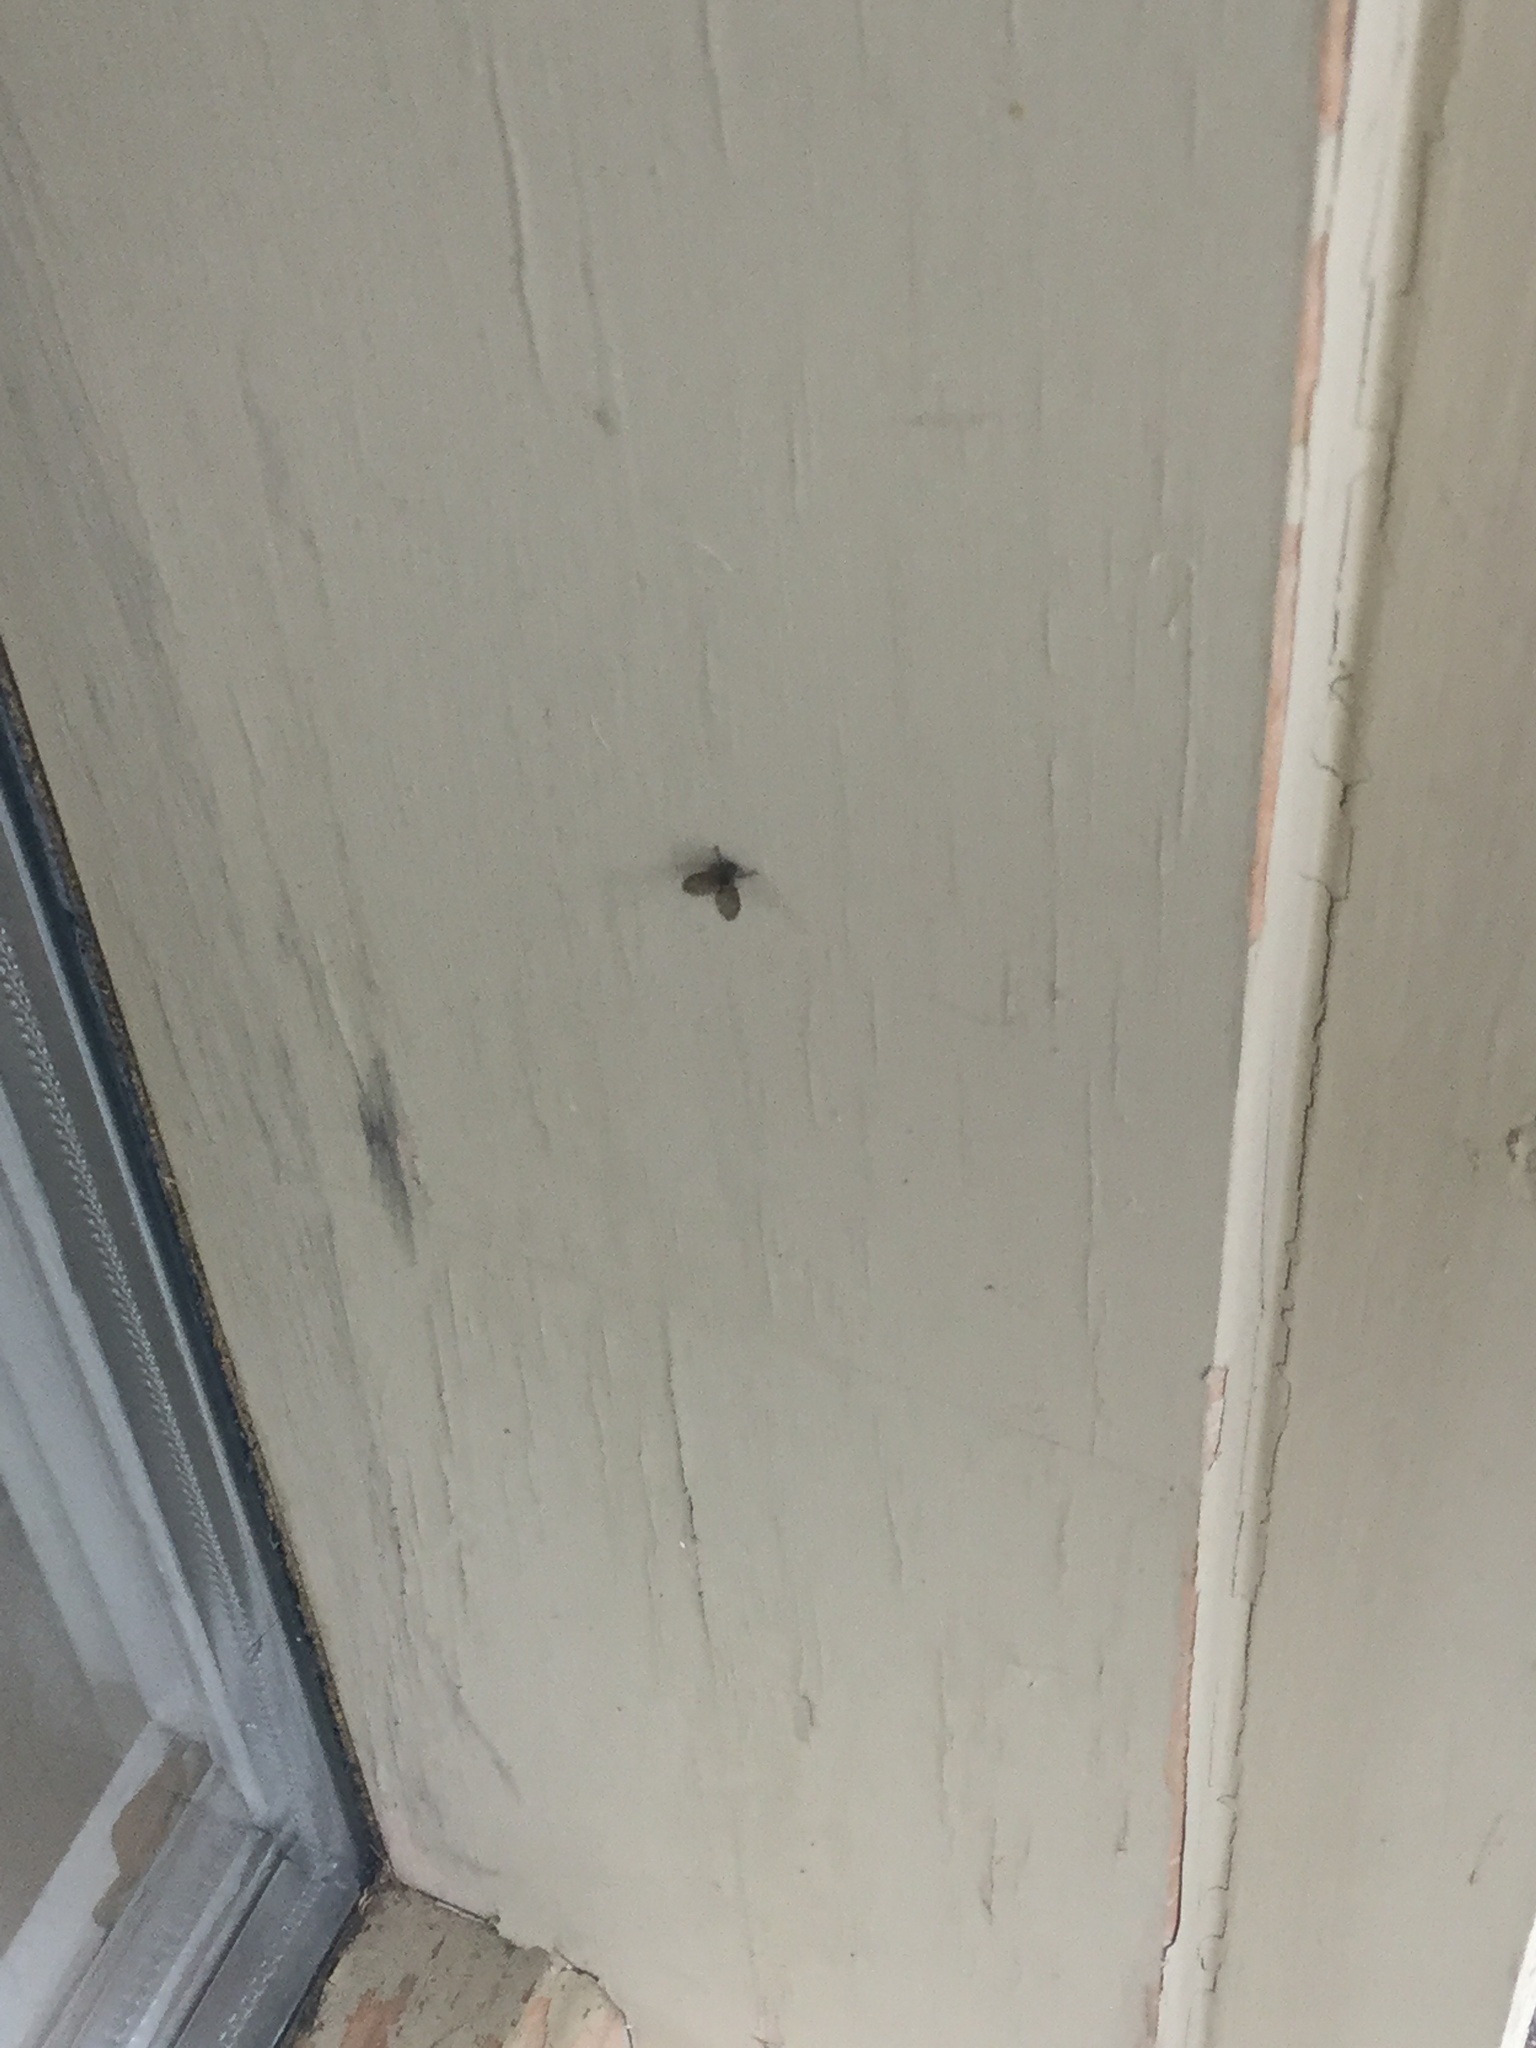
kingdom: Animalia
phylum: Arthropoda
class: Insecta
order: Diptera
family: Psychodidae
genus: Clogmia
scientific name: Clogmia albipunctatus
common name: White-spotted moth fly
